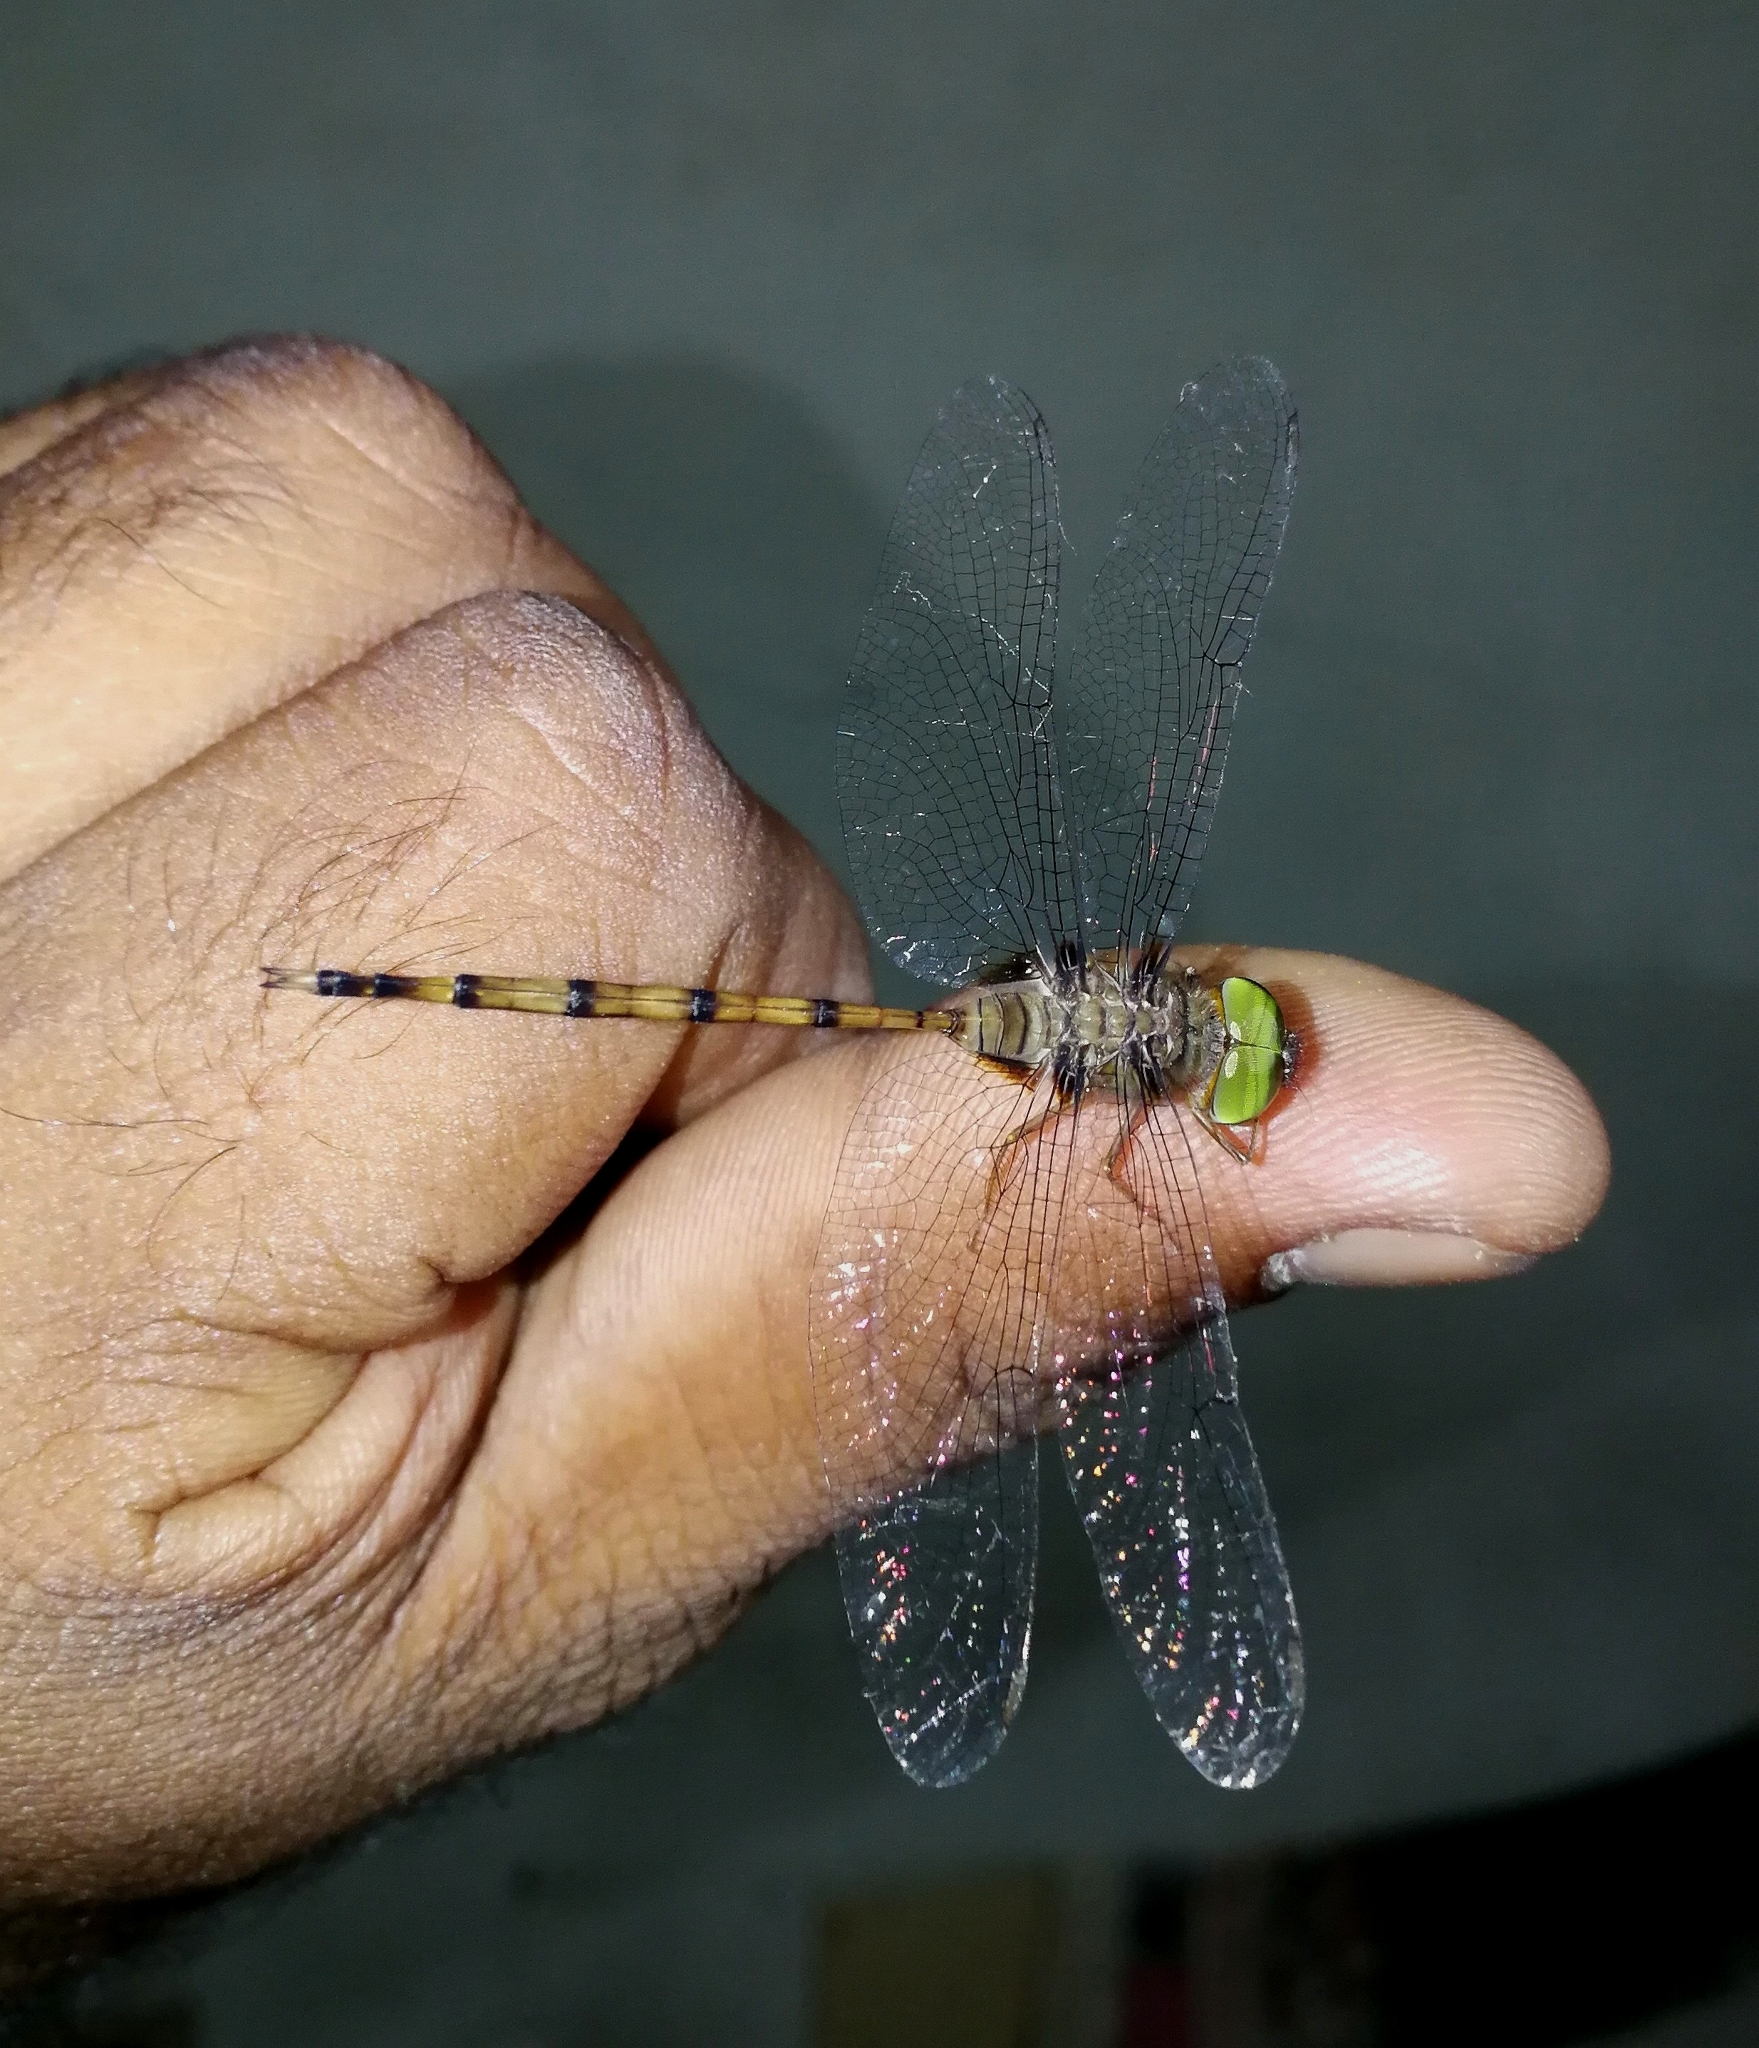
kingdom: Animalia
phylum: Arthropoda
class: Insecta
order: Odonata
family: Libellulidae
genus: Zyxomma
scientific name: Zyxomma petiolatum
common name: Dingy dusk-darter
